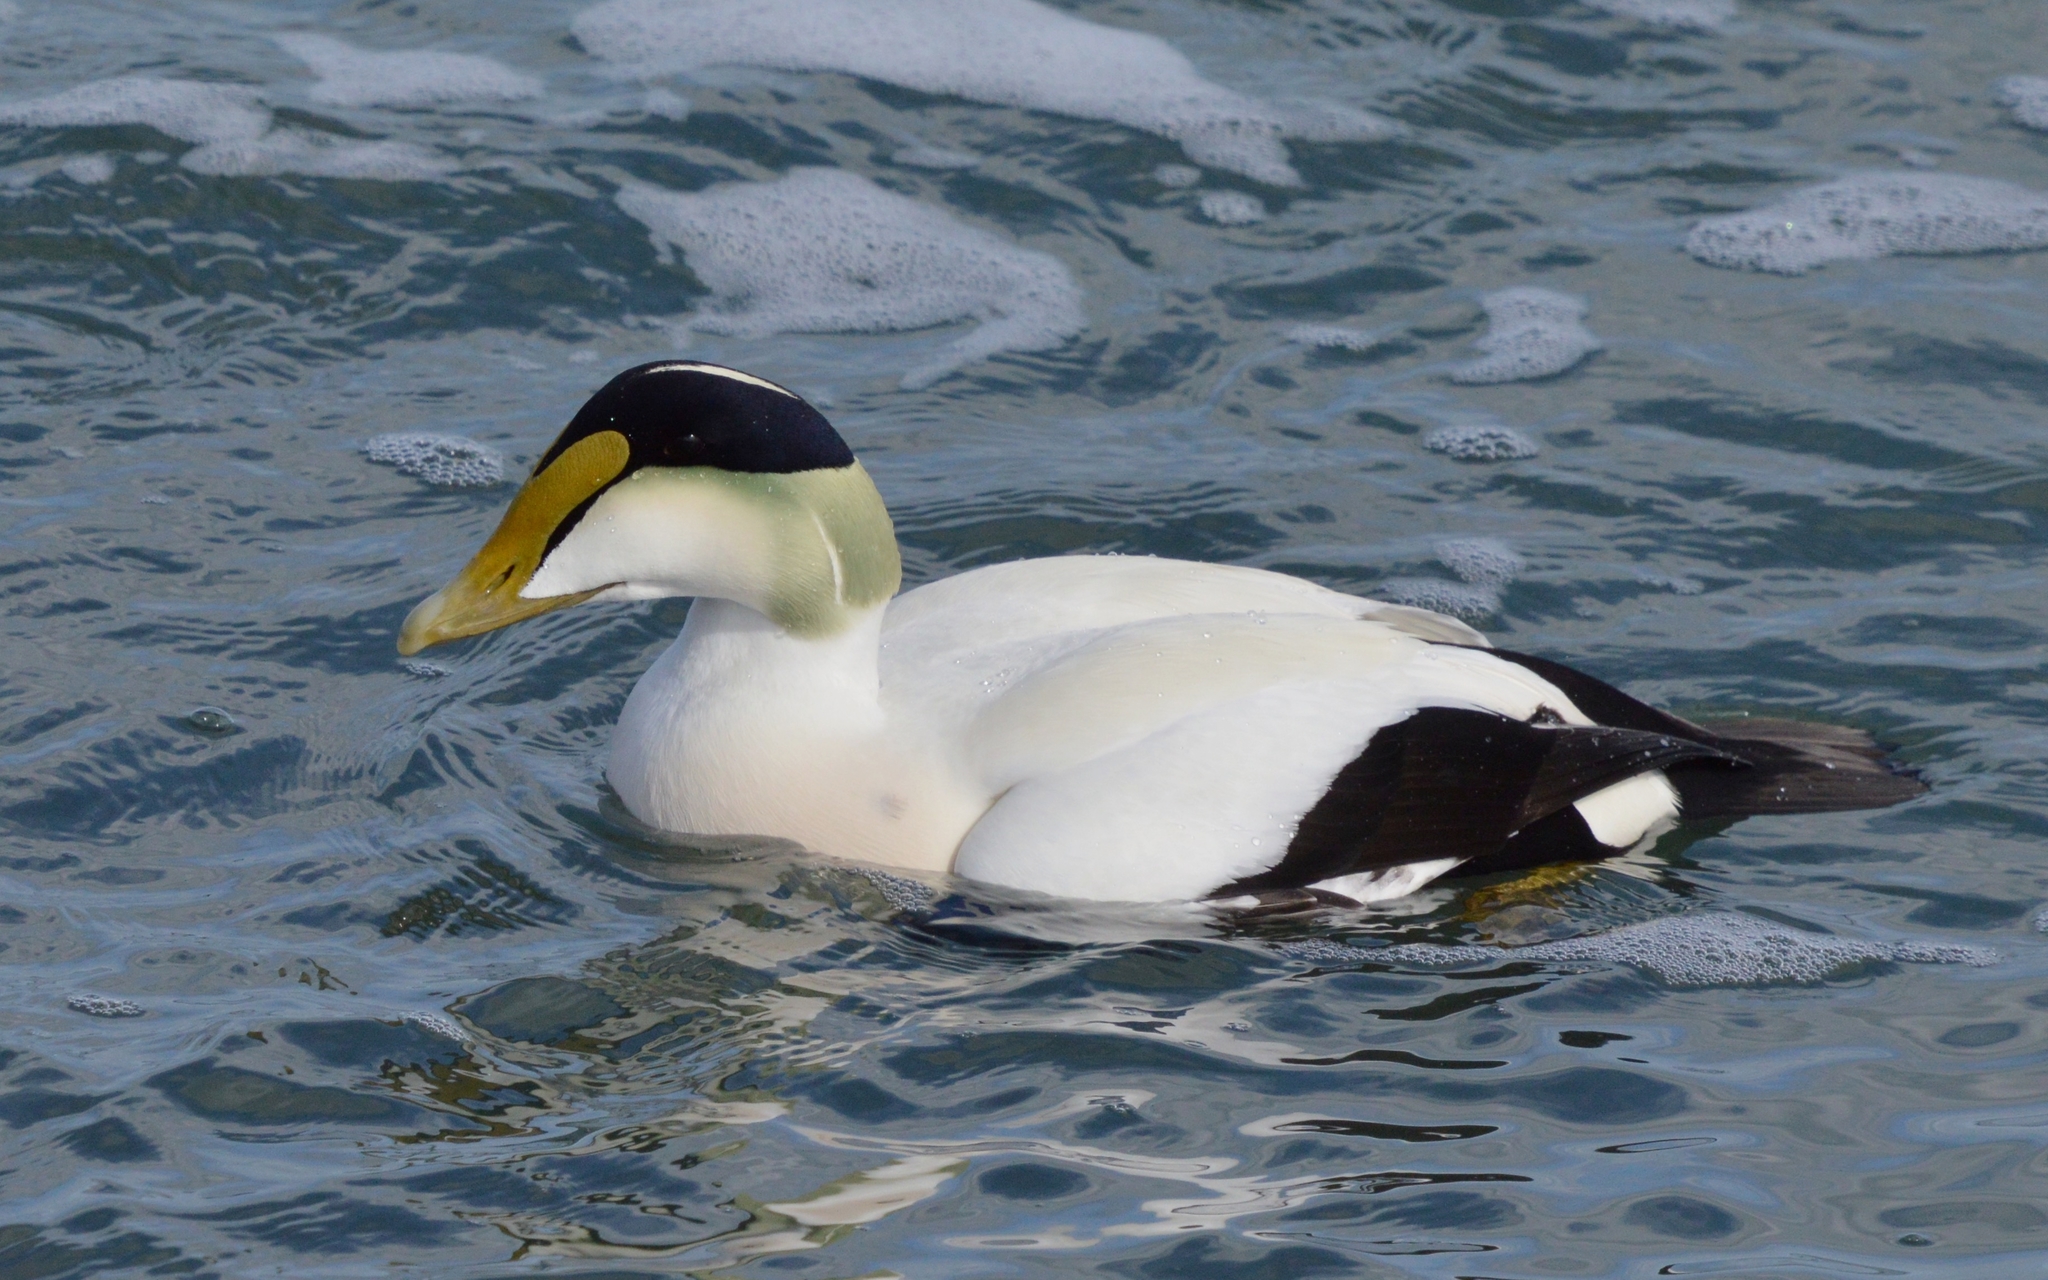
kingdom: Animalia
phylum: Chordata
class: Aves
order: Anseriformes
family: Anatidae
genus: Somateria
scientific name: Somateria mollissima
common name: Common eider
